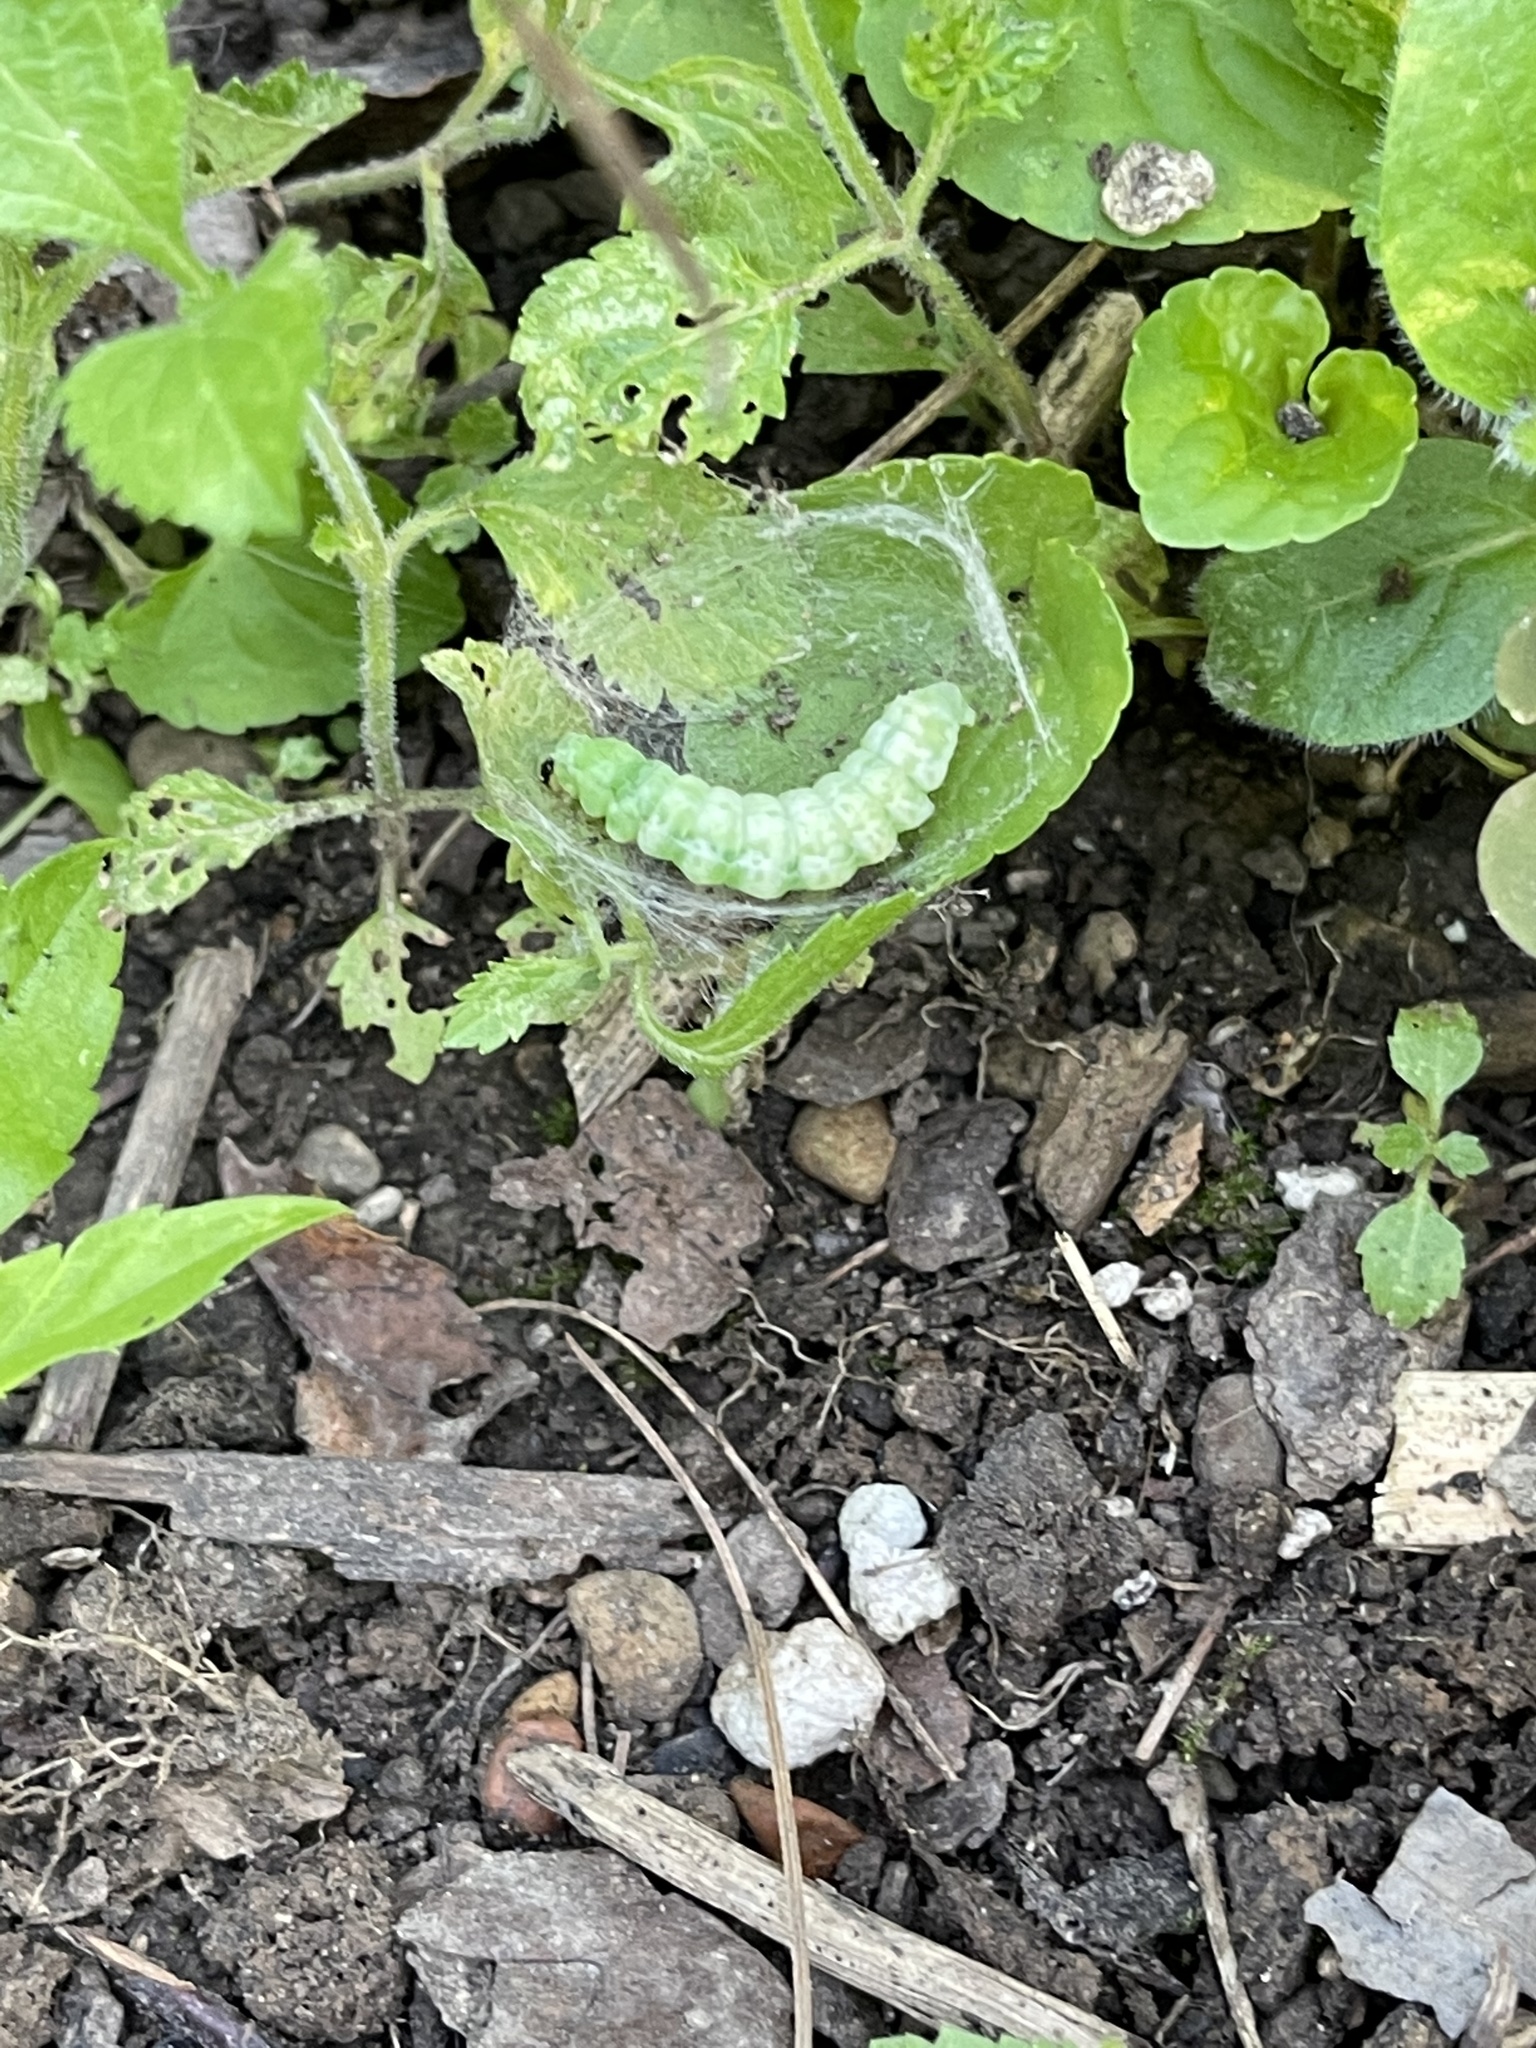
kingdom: Animalia
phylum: Arthropoda
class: Insecta
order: Lepidoptera
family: Noctuidae
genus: Autographa
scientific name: Autographa precationis
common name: Common looper moth
